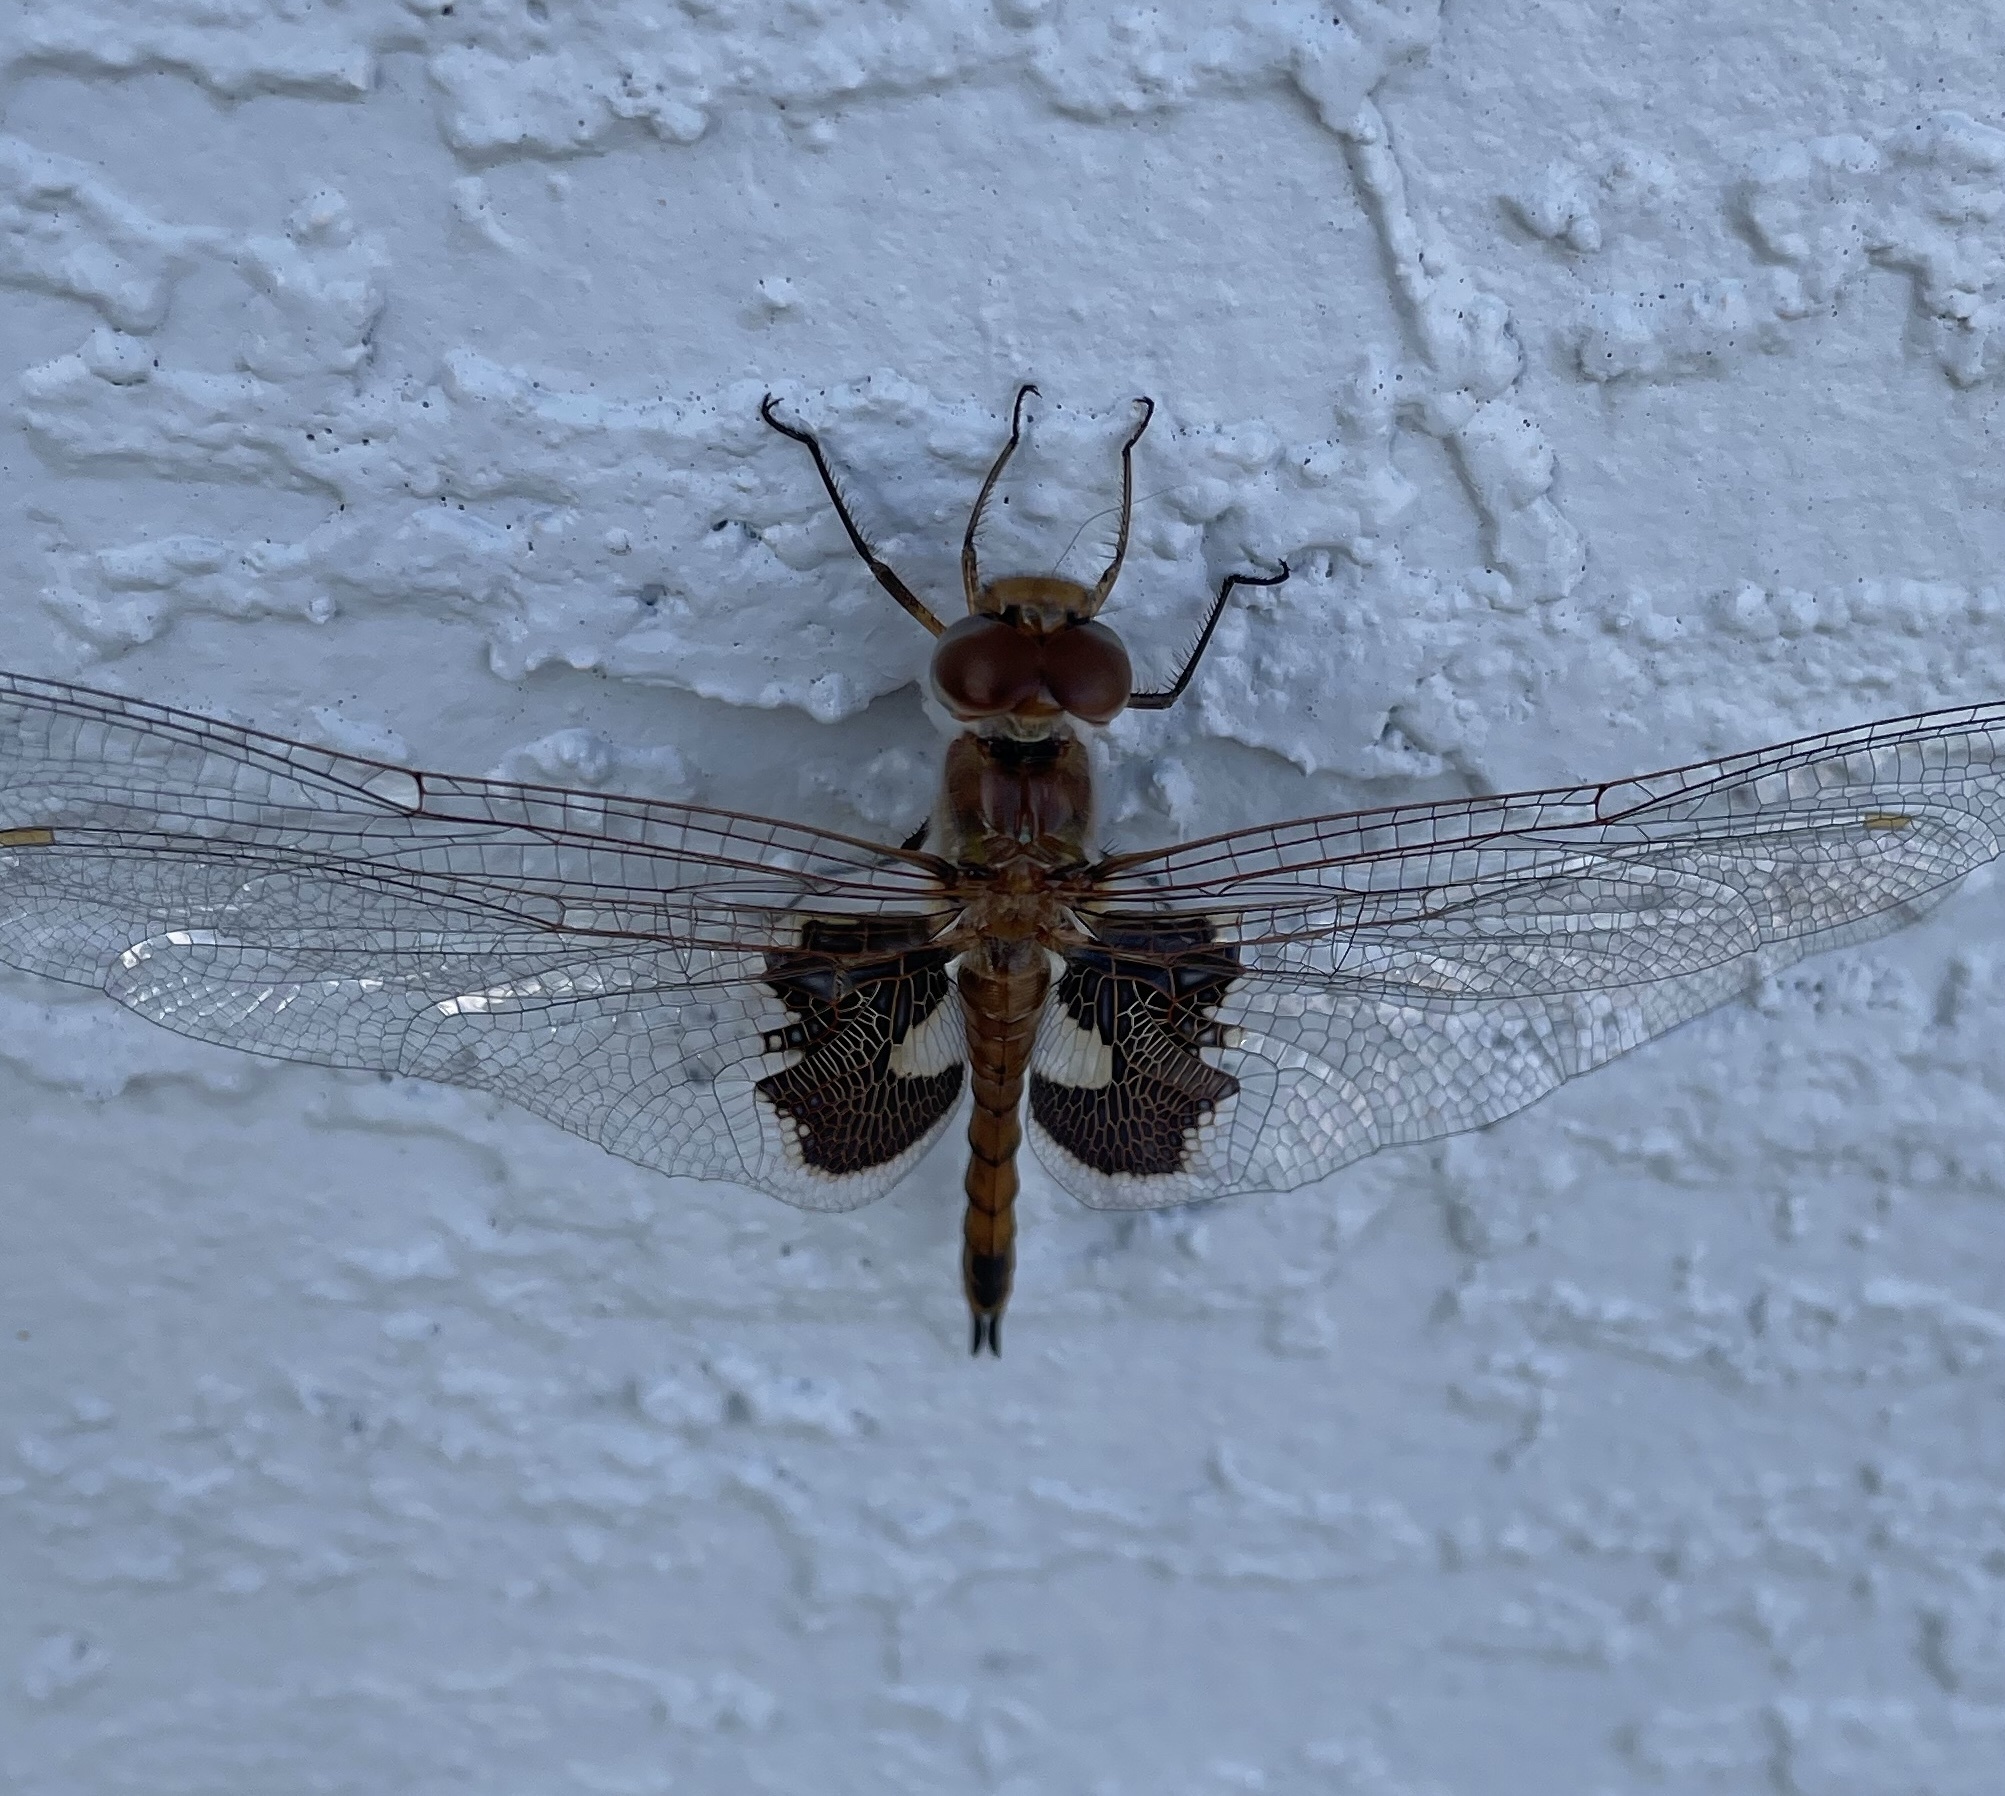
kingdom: Animalia
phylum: Arthropoda
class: Insecta
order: Odonata
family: Libellulidae
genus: Tramea
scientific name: Tramea onusta
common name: Red saddlebags
